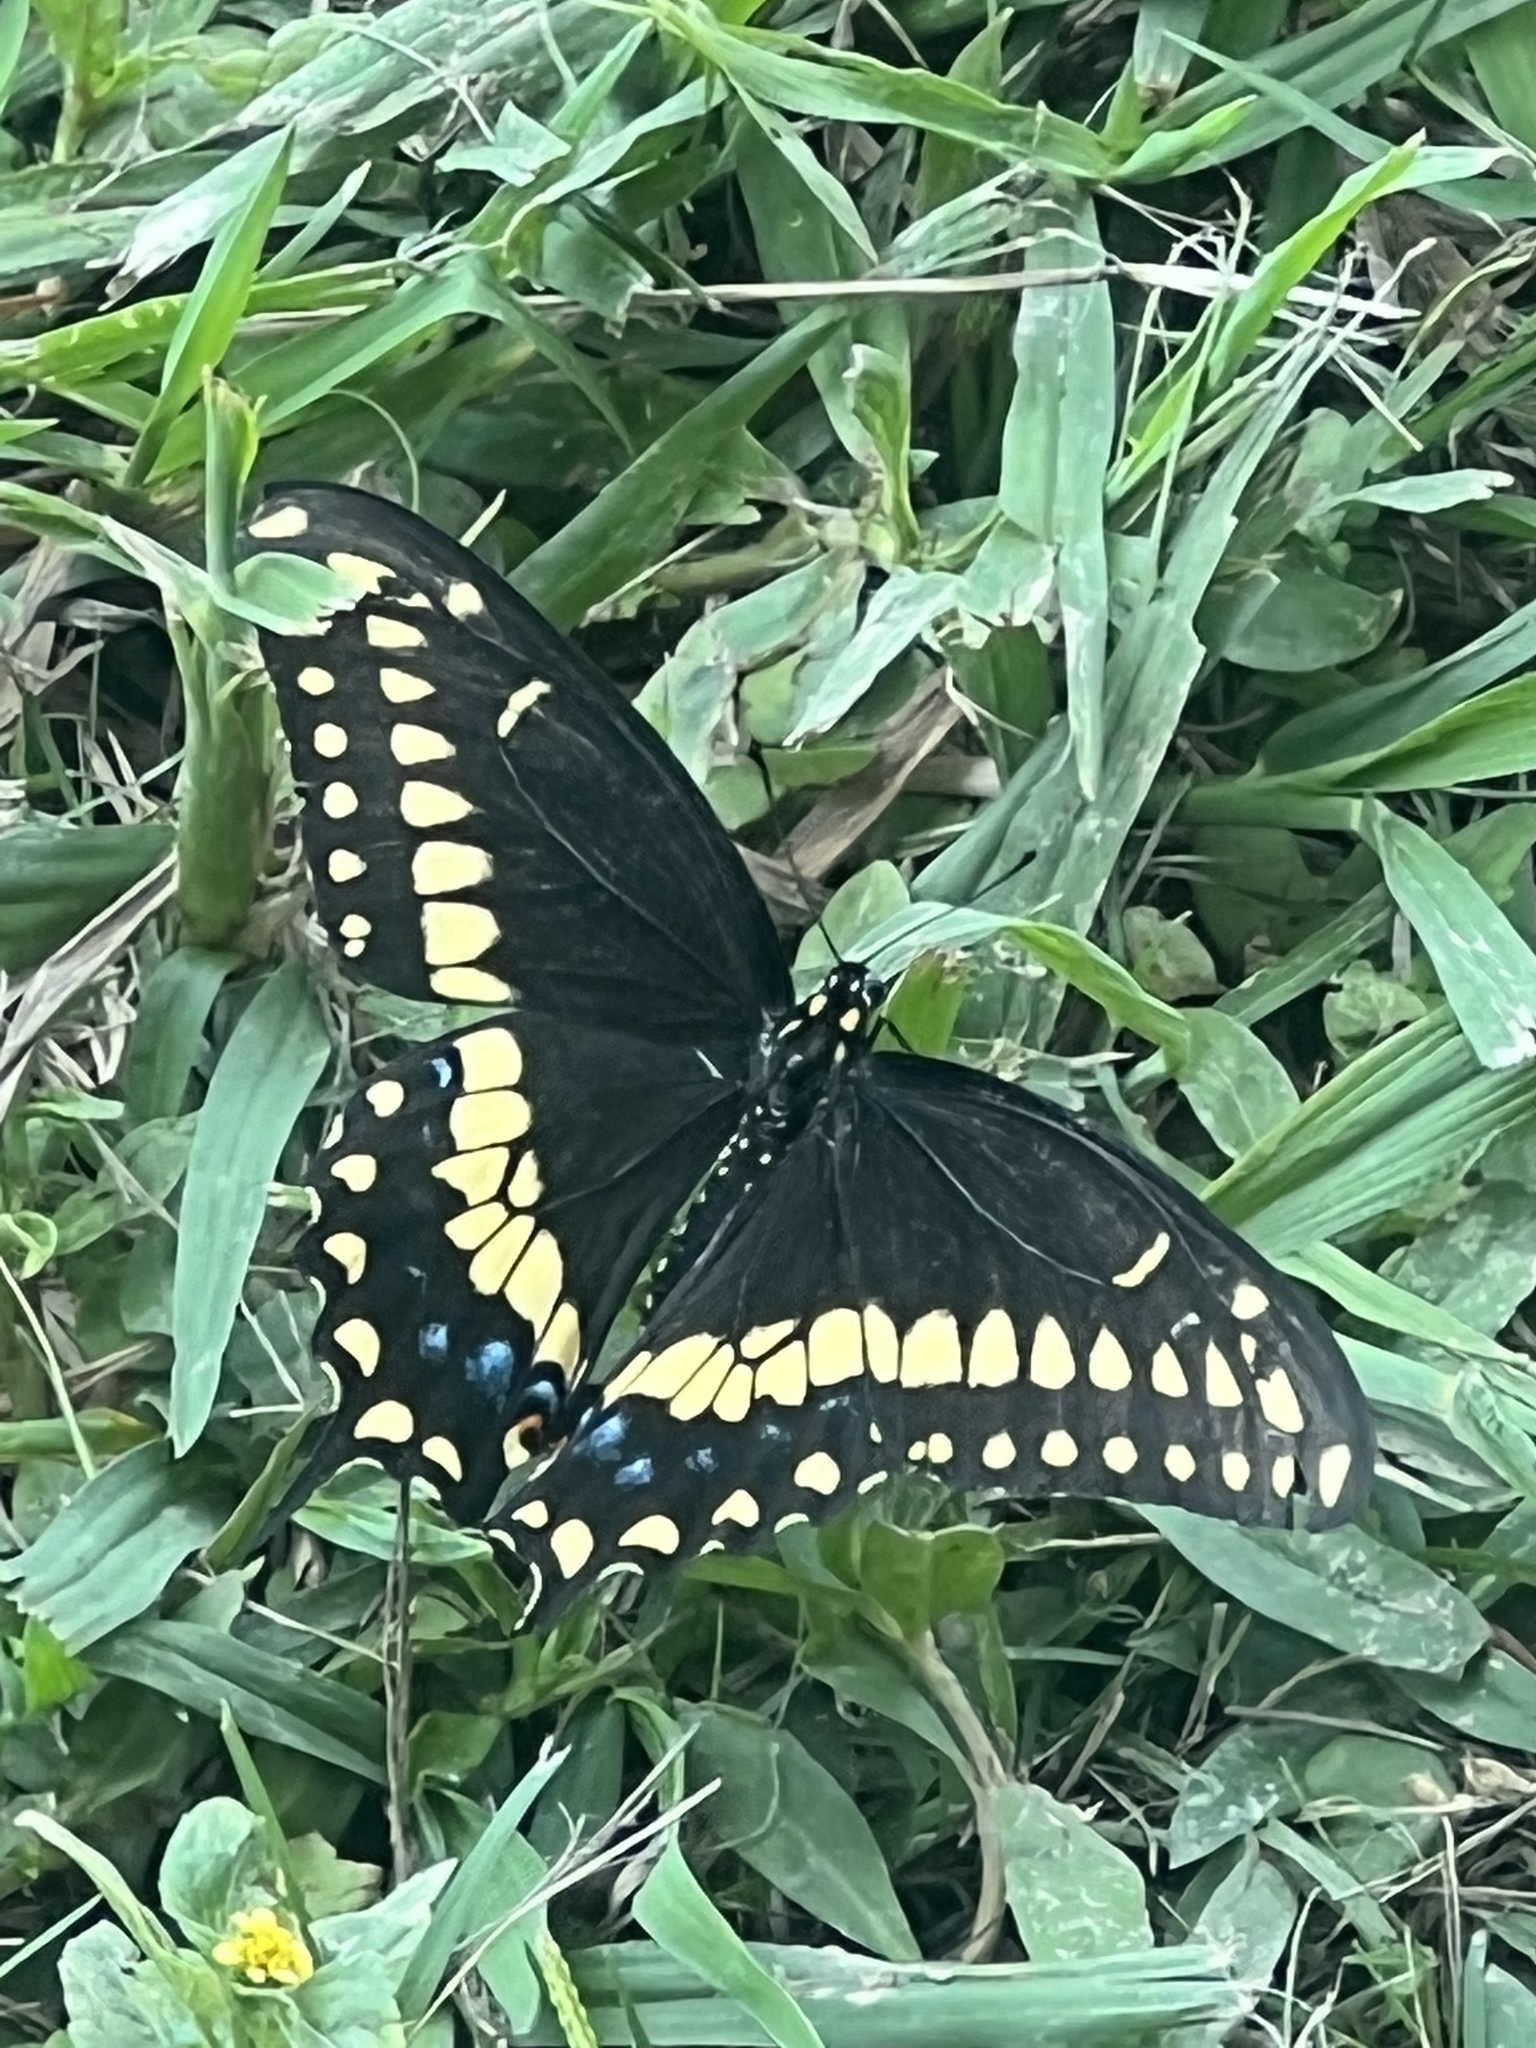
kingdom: Animalia
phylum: Arthropoda
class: Insecta
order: Lepidoptera
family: Papilionidae
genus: Papilio
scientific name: Papilio polyxenes
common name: Black swallowtail
